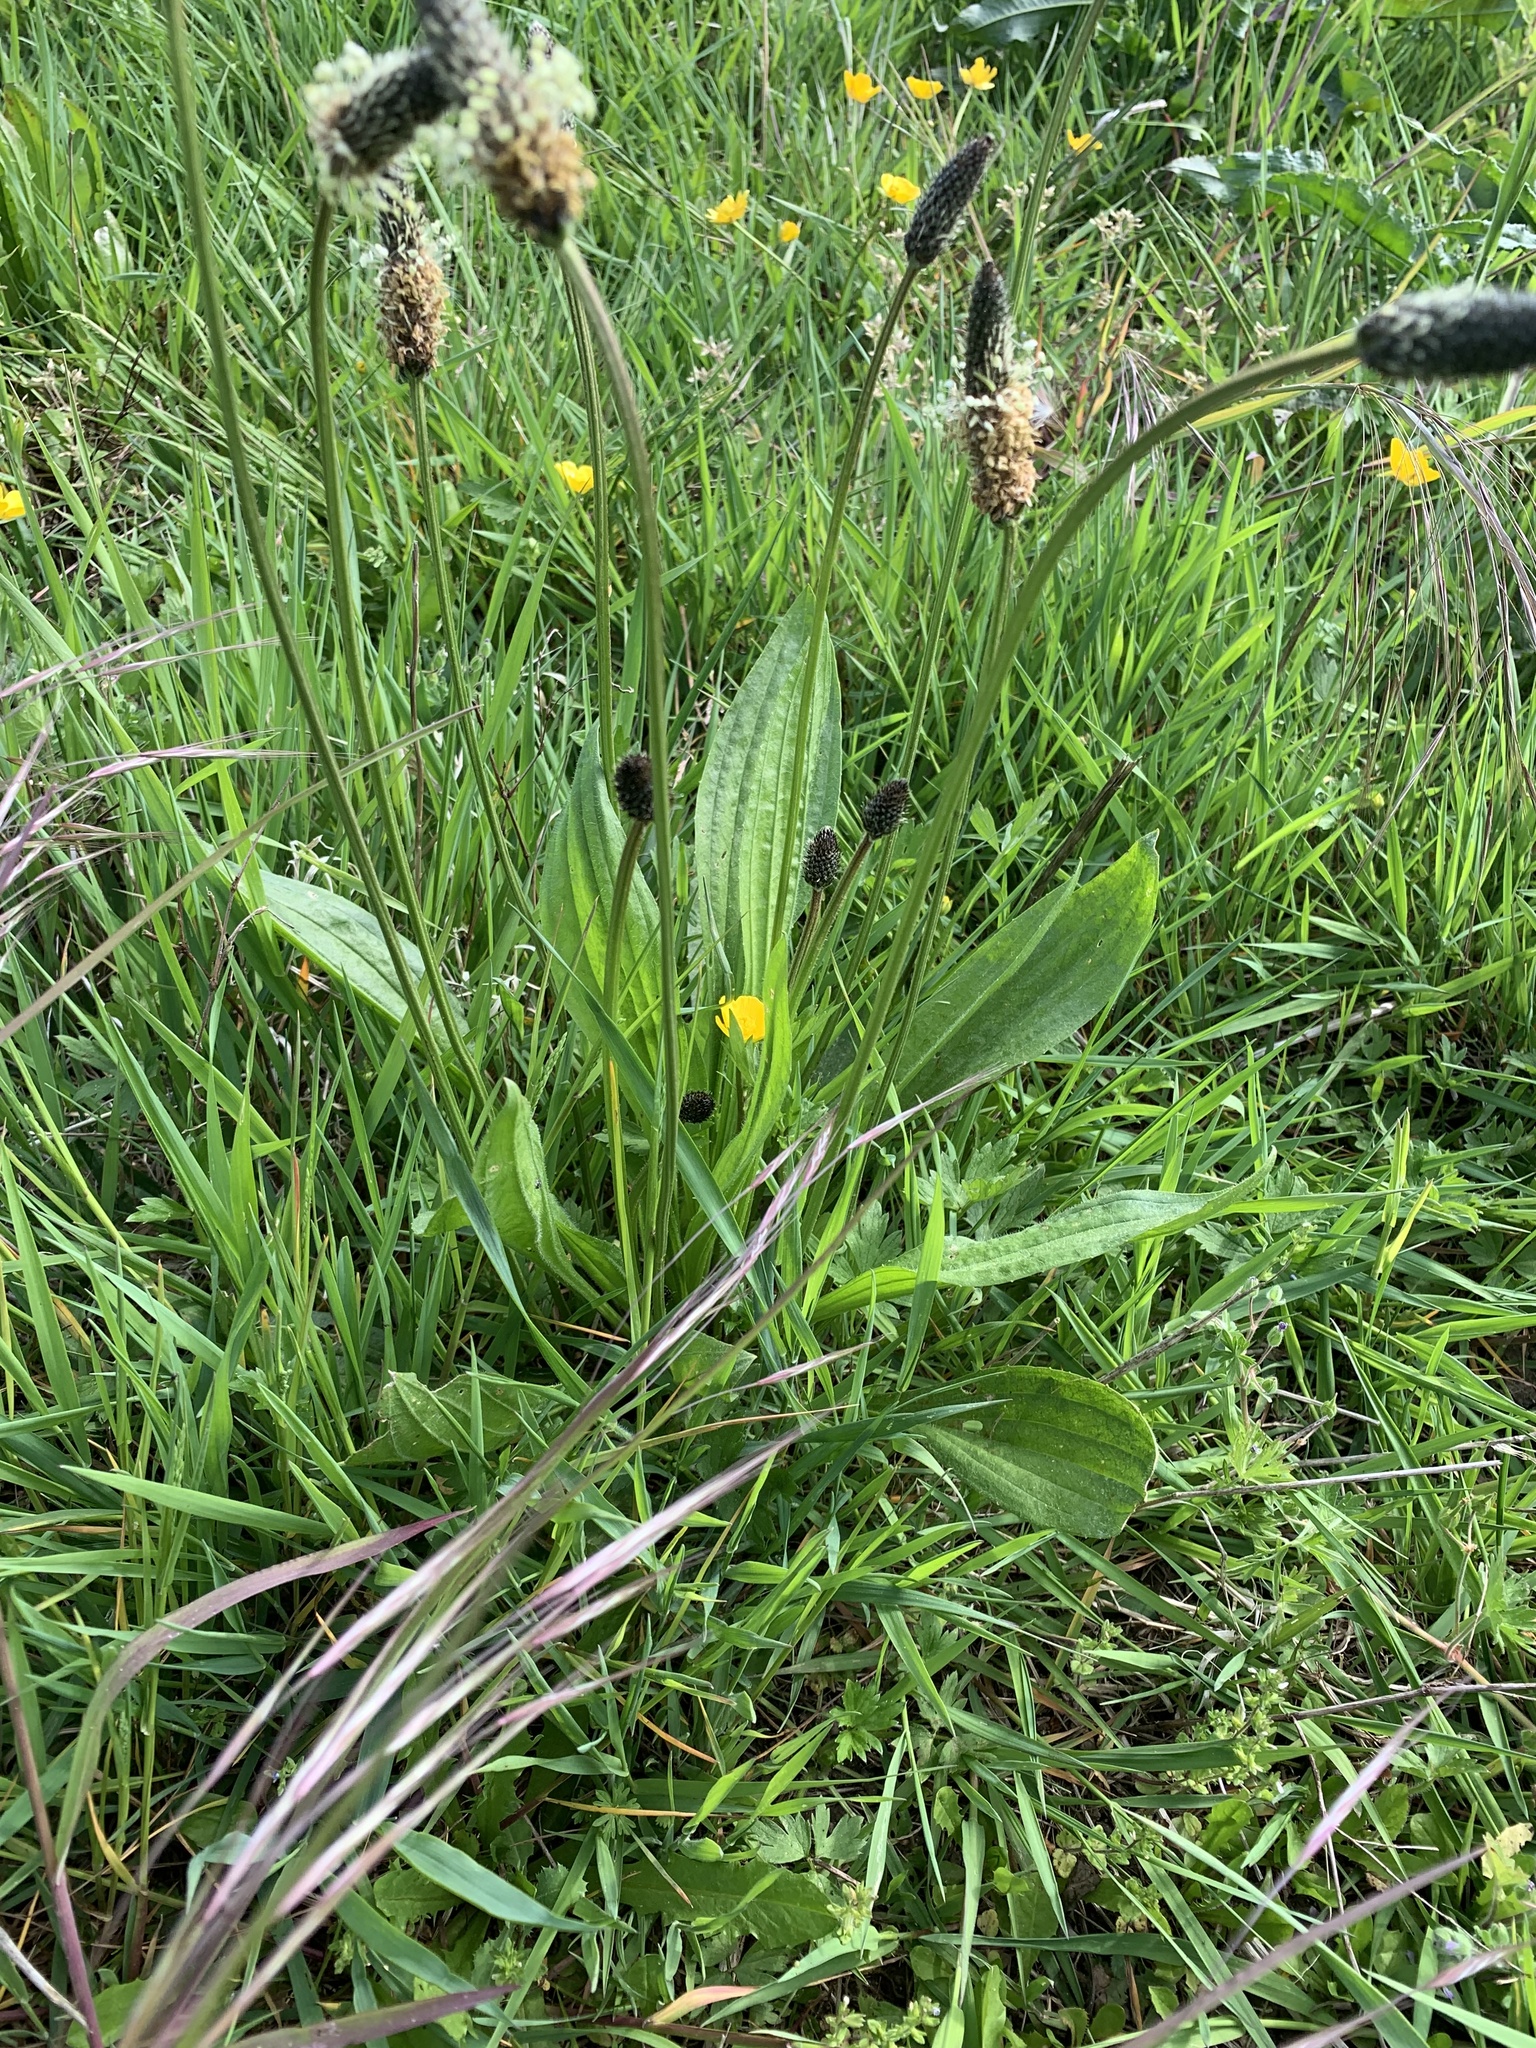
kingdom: Plantae
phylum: Tracheophyta
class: Magnoliopsida
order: Lamiales
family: Plantaginaceae
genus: Plantago
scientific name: Plantago lanceolata
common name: Ribwort plantain
